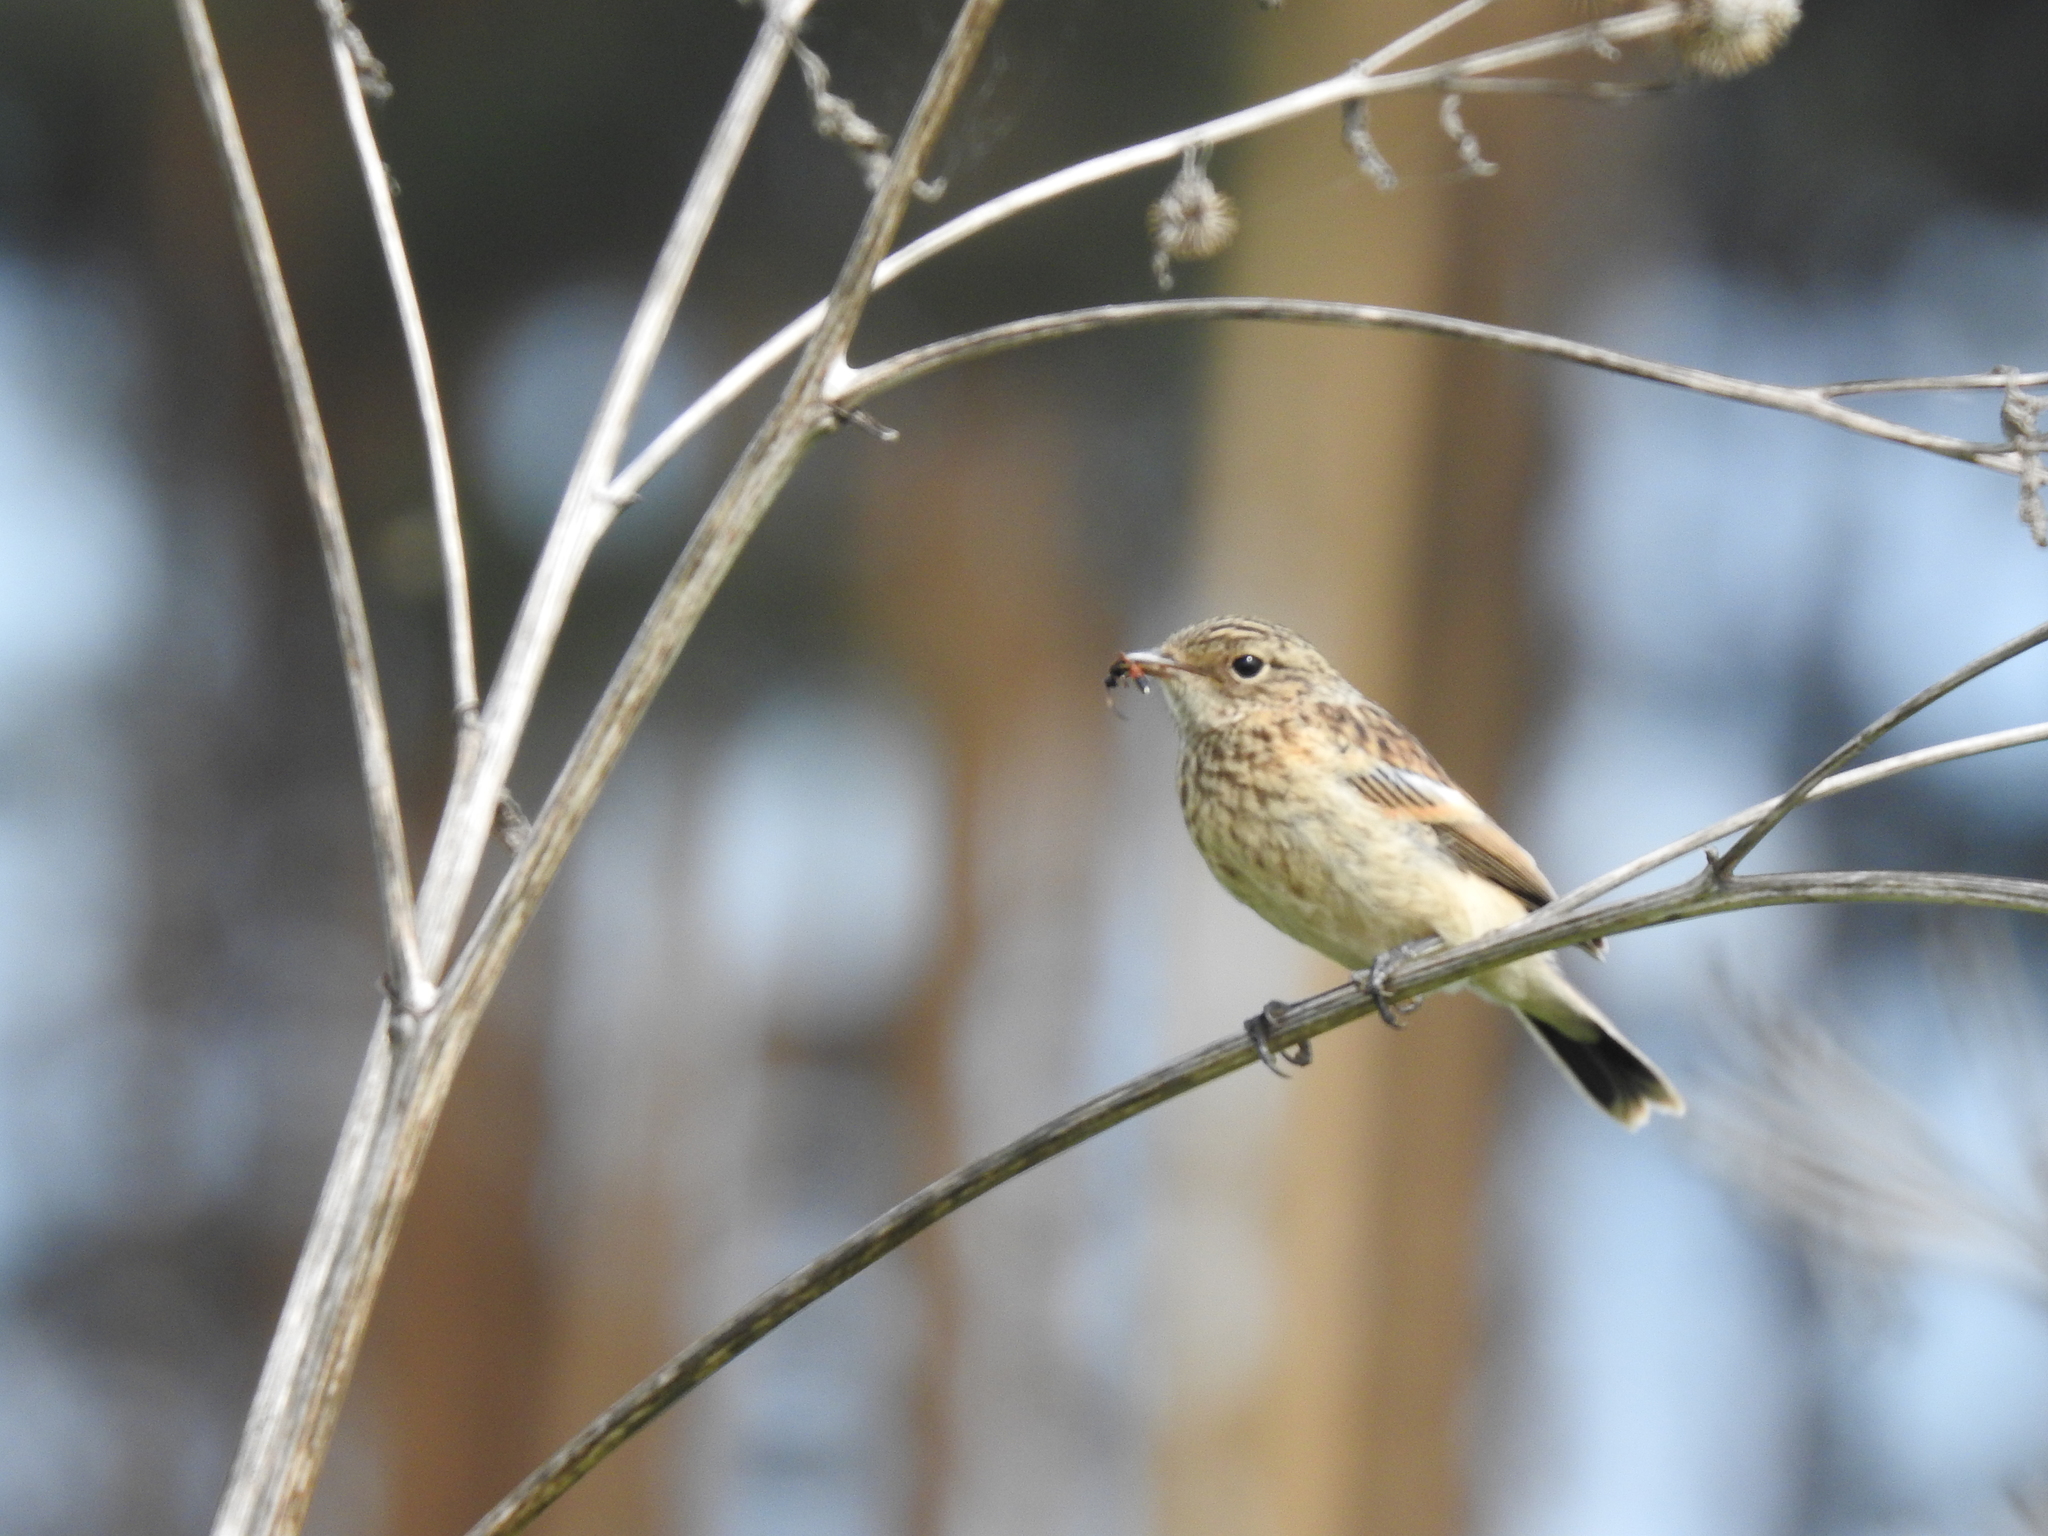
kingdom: Animalia
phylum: Chordata
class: Aves
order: Passeriformes
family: Muscicapidae
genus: Saxicola
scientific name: Saxicola maurus
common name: Siberian stonechat
